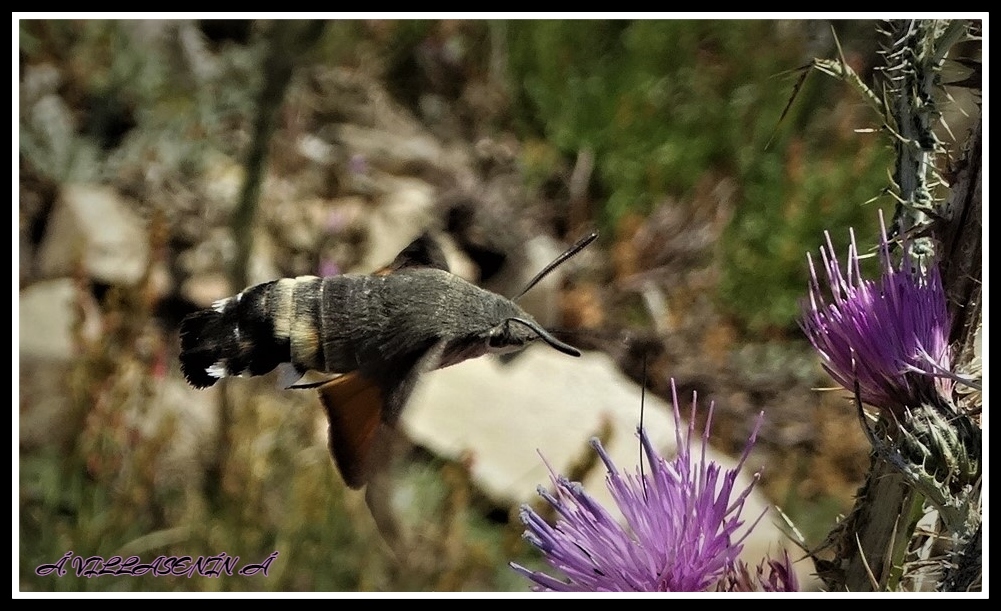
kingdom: Animalia
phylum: Arthropoda
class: Insecta
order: Lepidoptera
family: Sphingidae
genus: Macroglossum
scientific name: Macroglossum stellatarum
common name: Humming-bird hawk-moth
